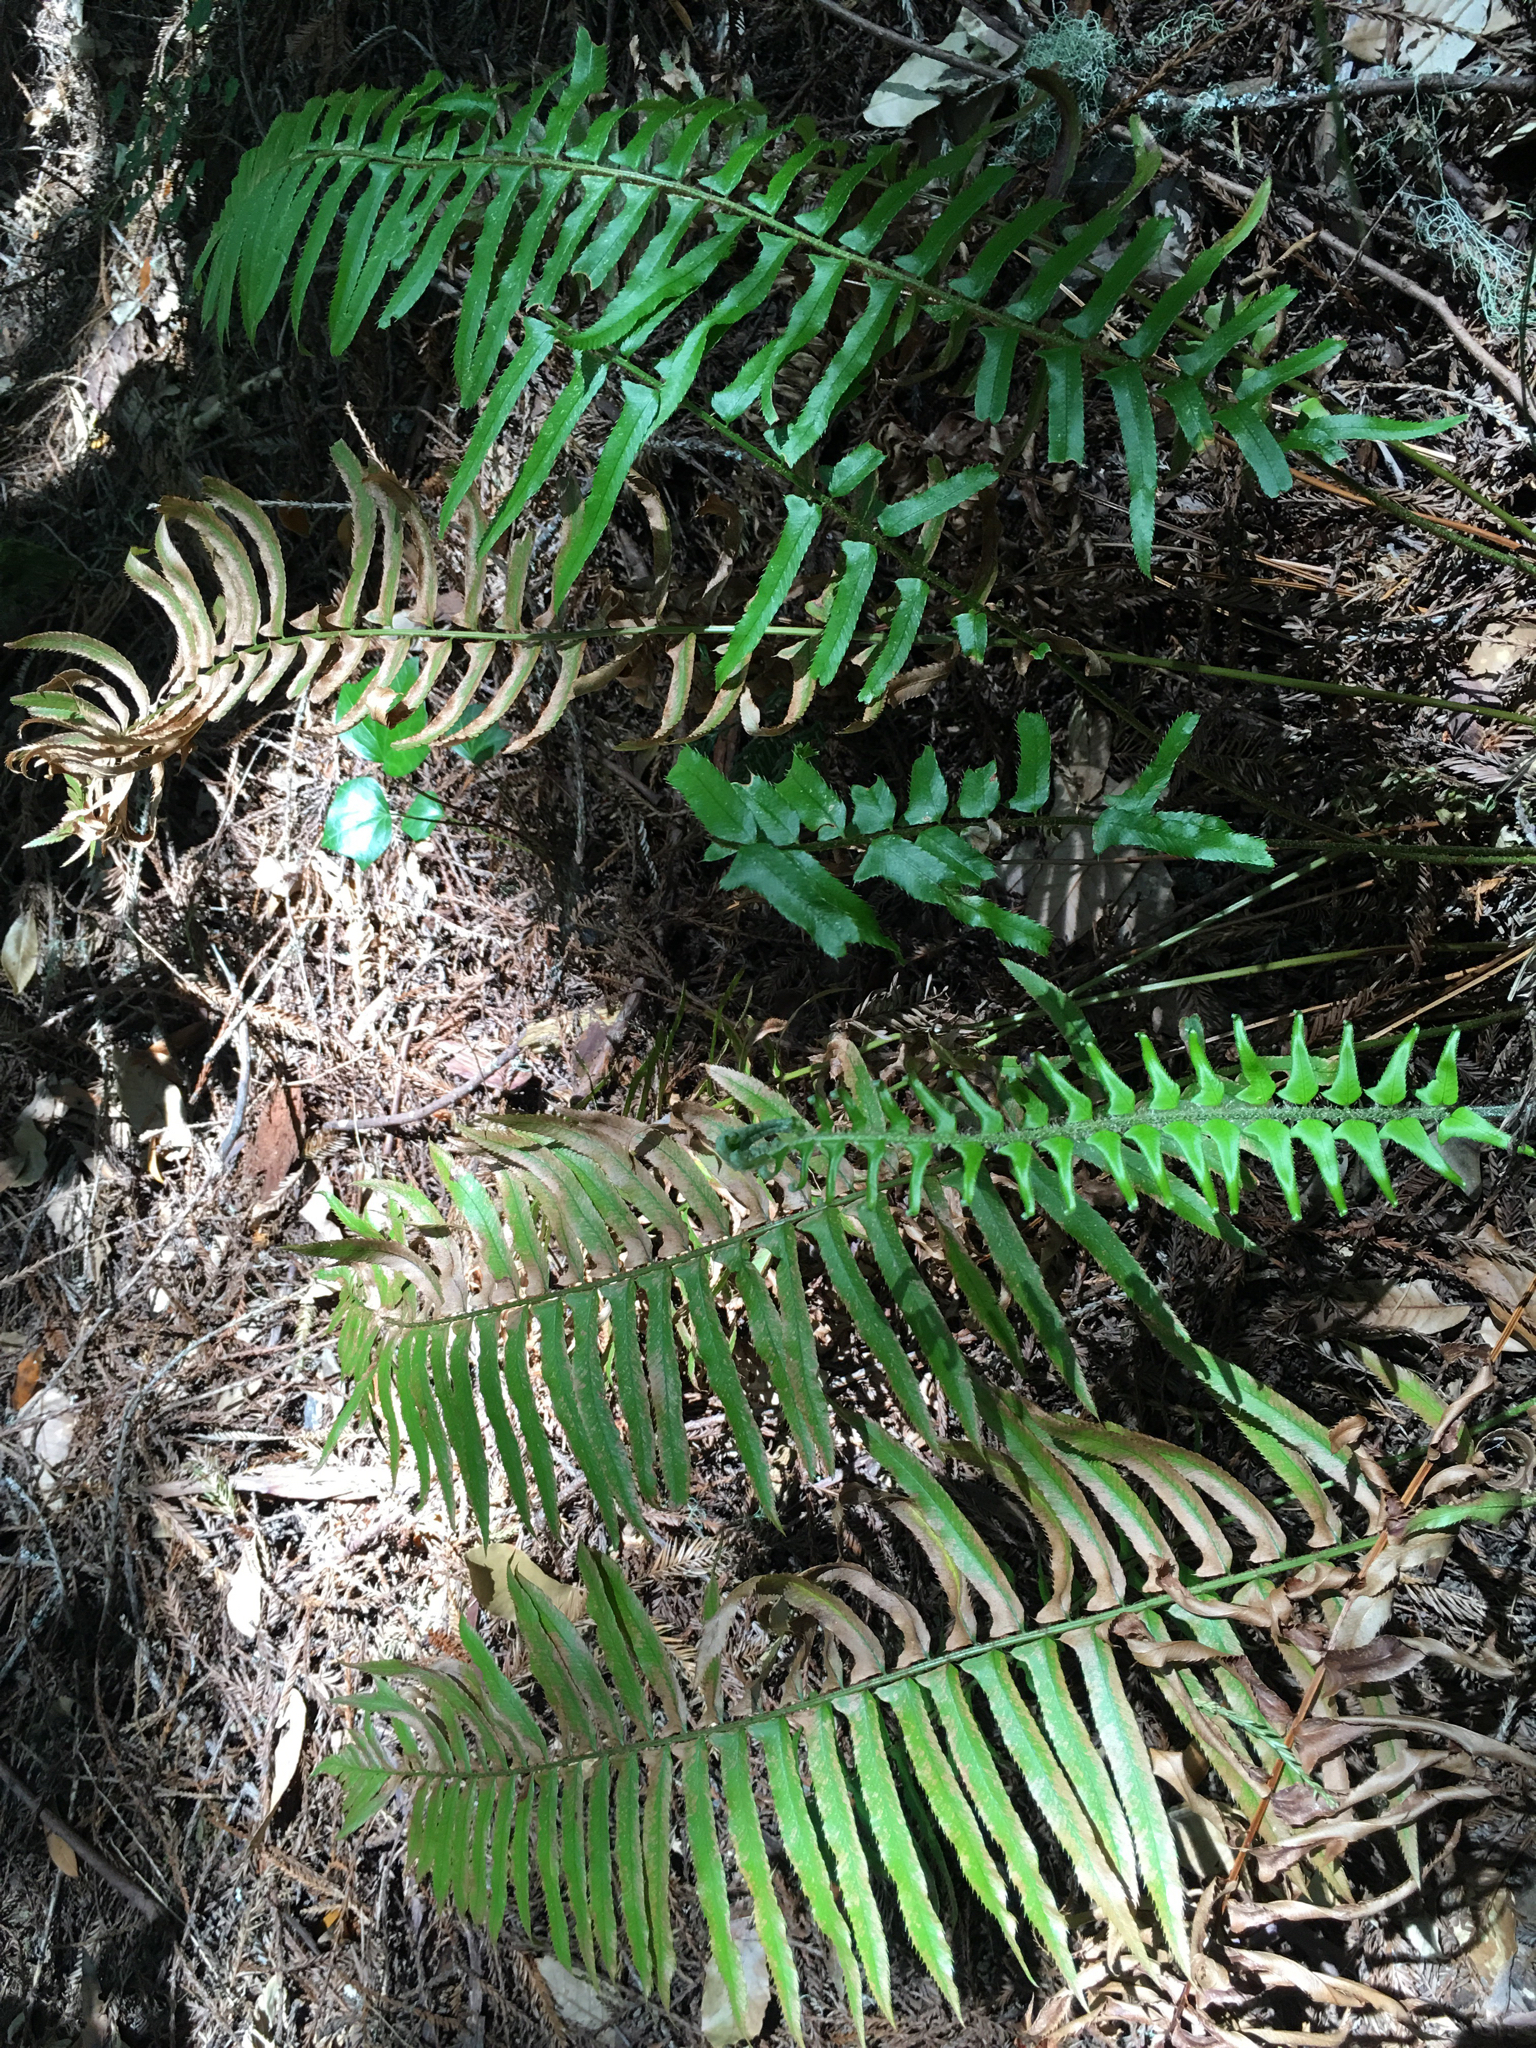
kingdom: Plantae
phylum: Tracheophyta
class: Polypodiopsida
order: Polypodiales
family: Dryopteridaceae
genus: Polystichum
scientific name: Polystichum munitum
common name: Western sword-fern
